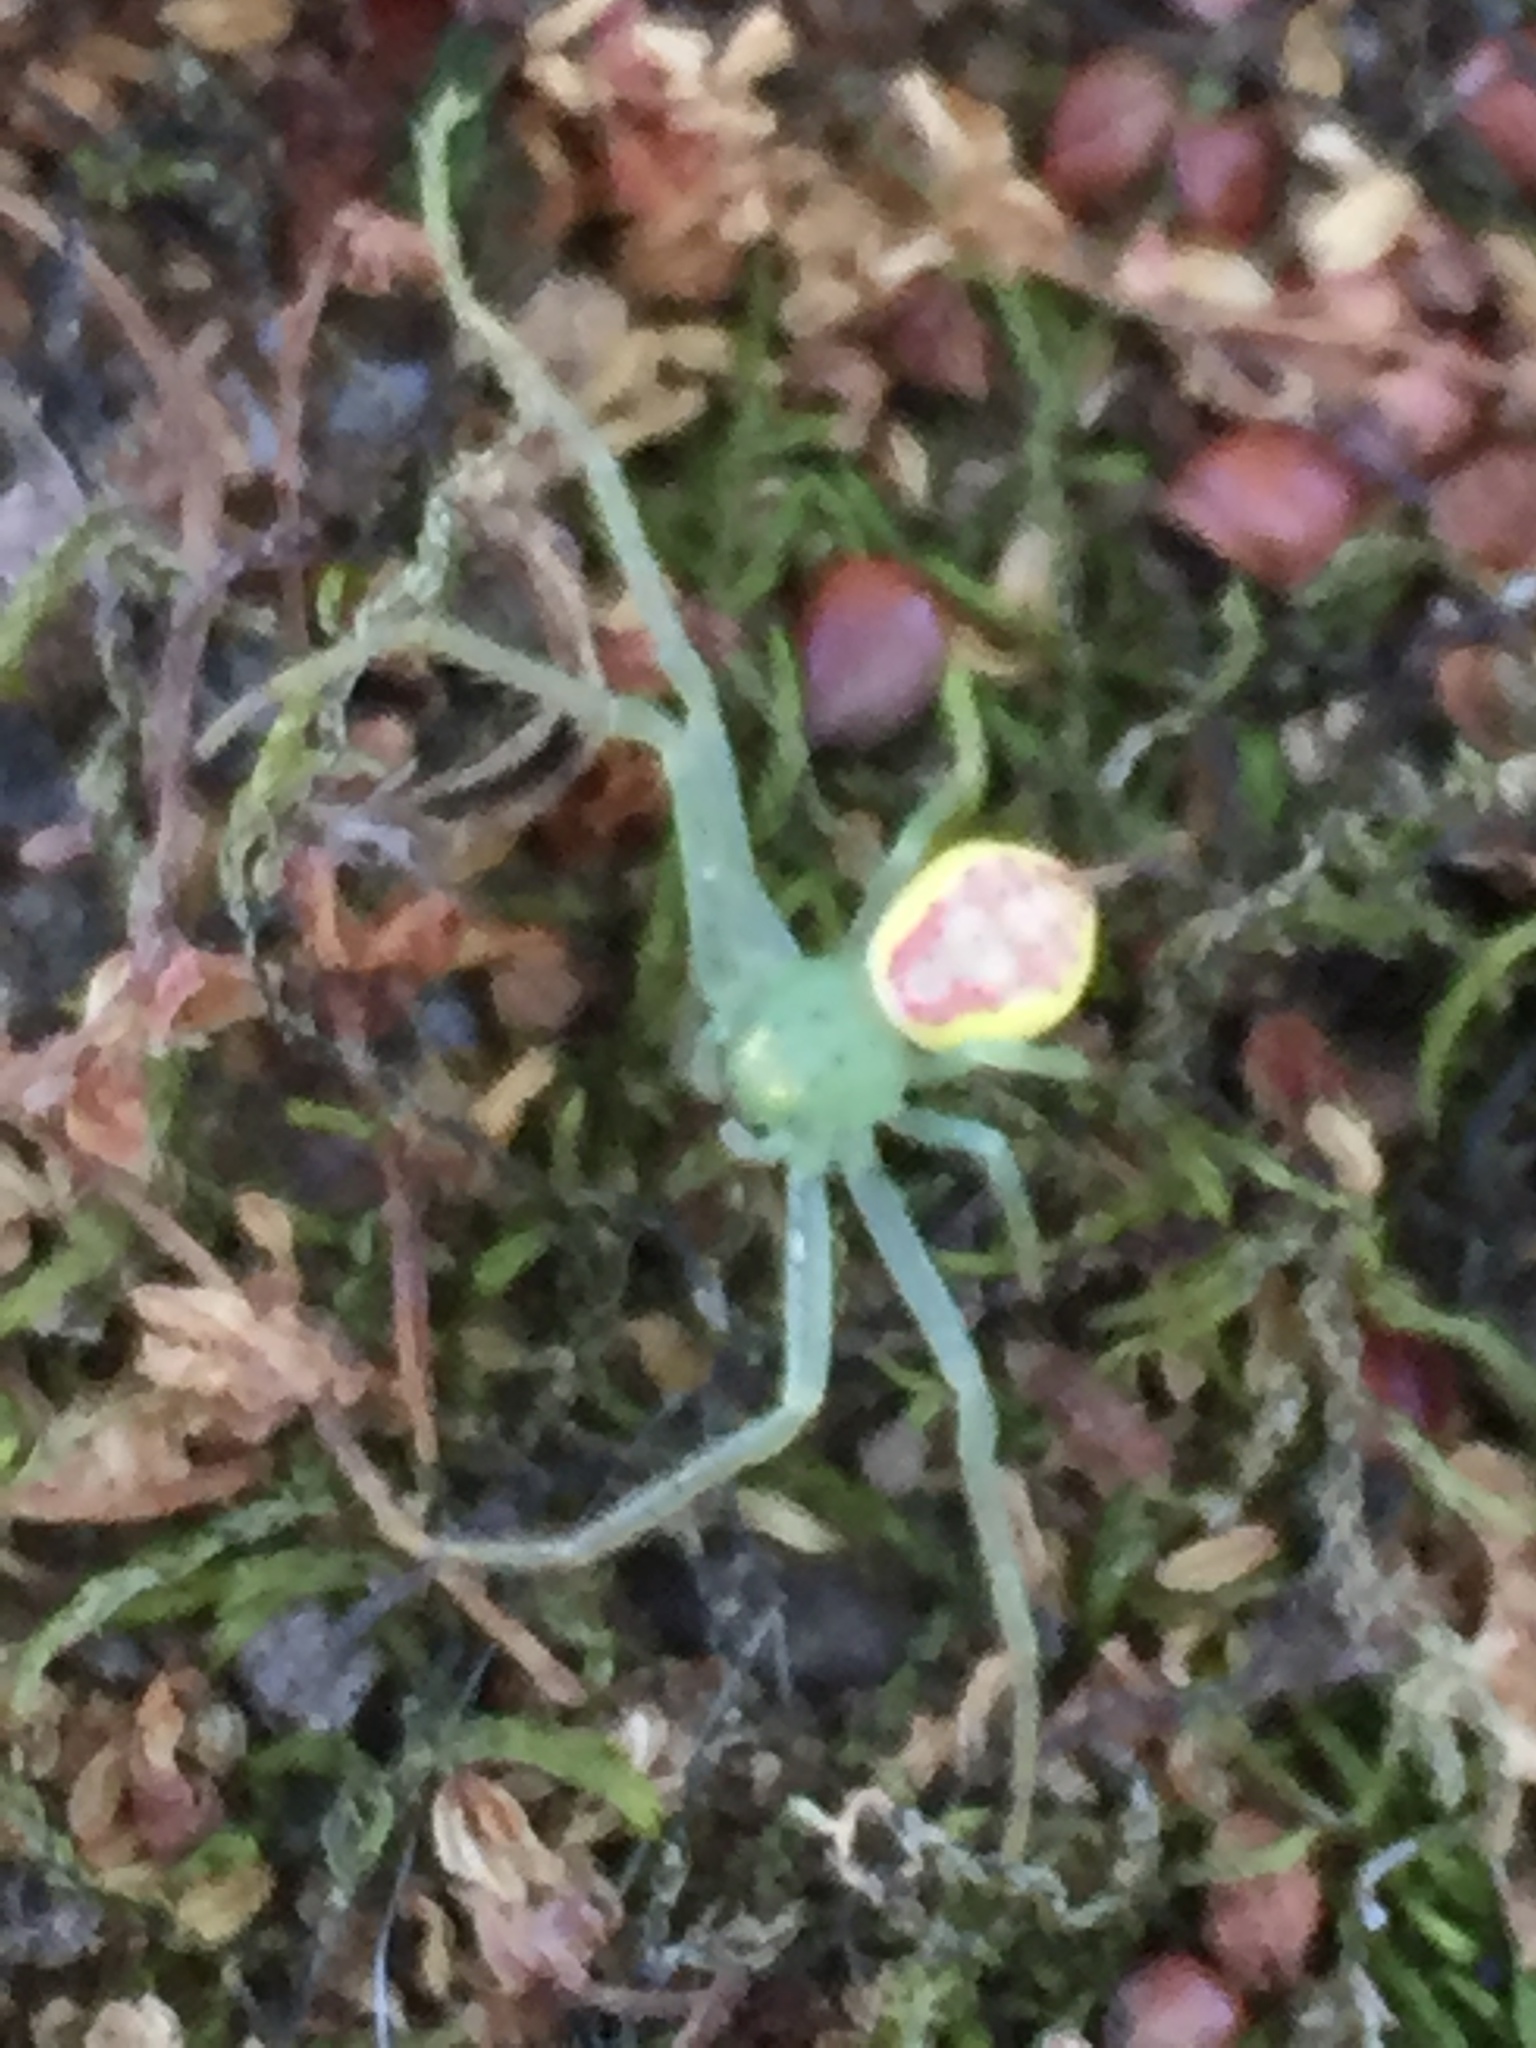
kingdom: Animalia
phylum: Arthropoda
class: Arachnida
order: Araneae
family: Thomisidae
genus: Diaea
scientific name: Diaea livens
